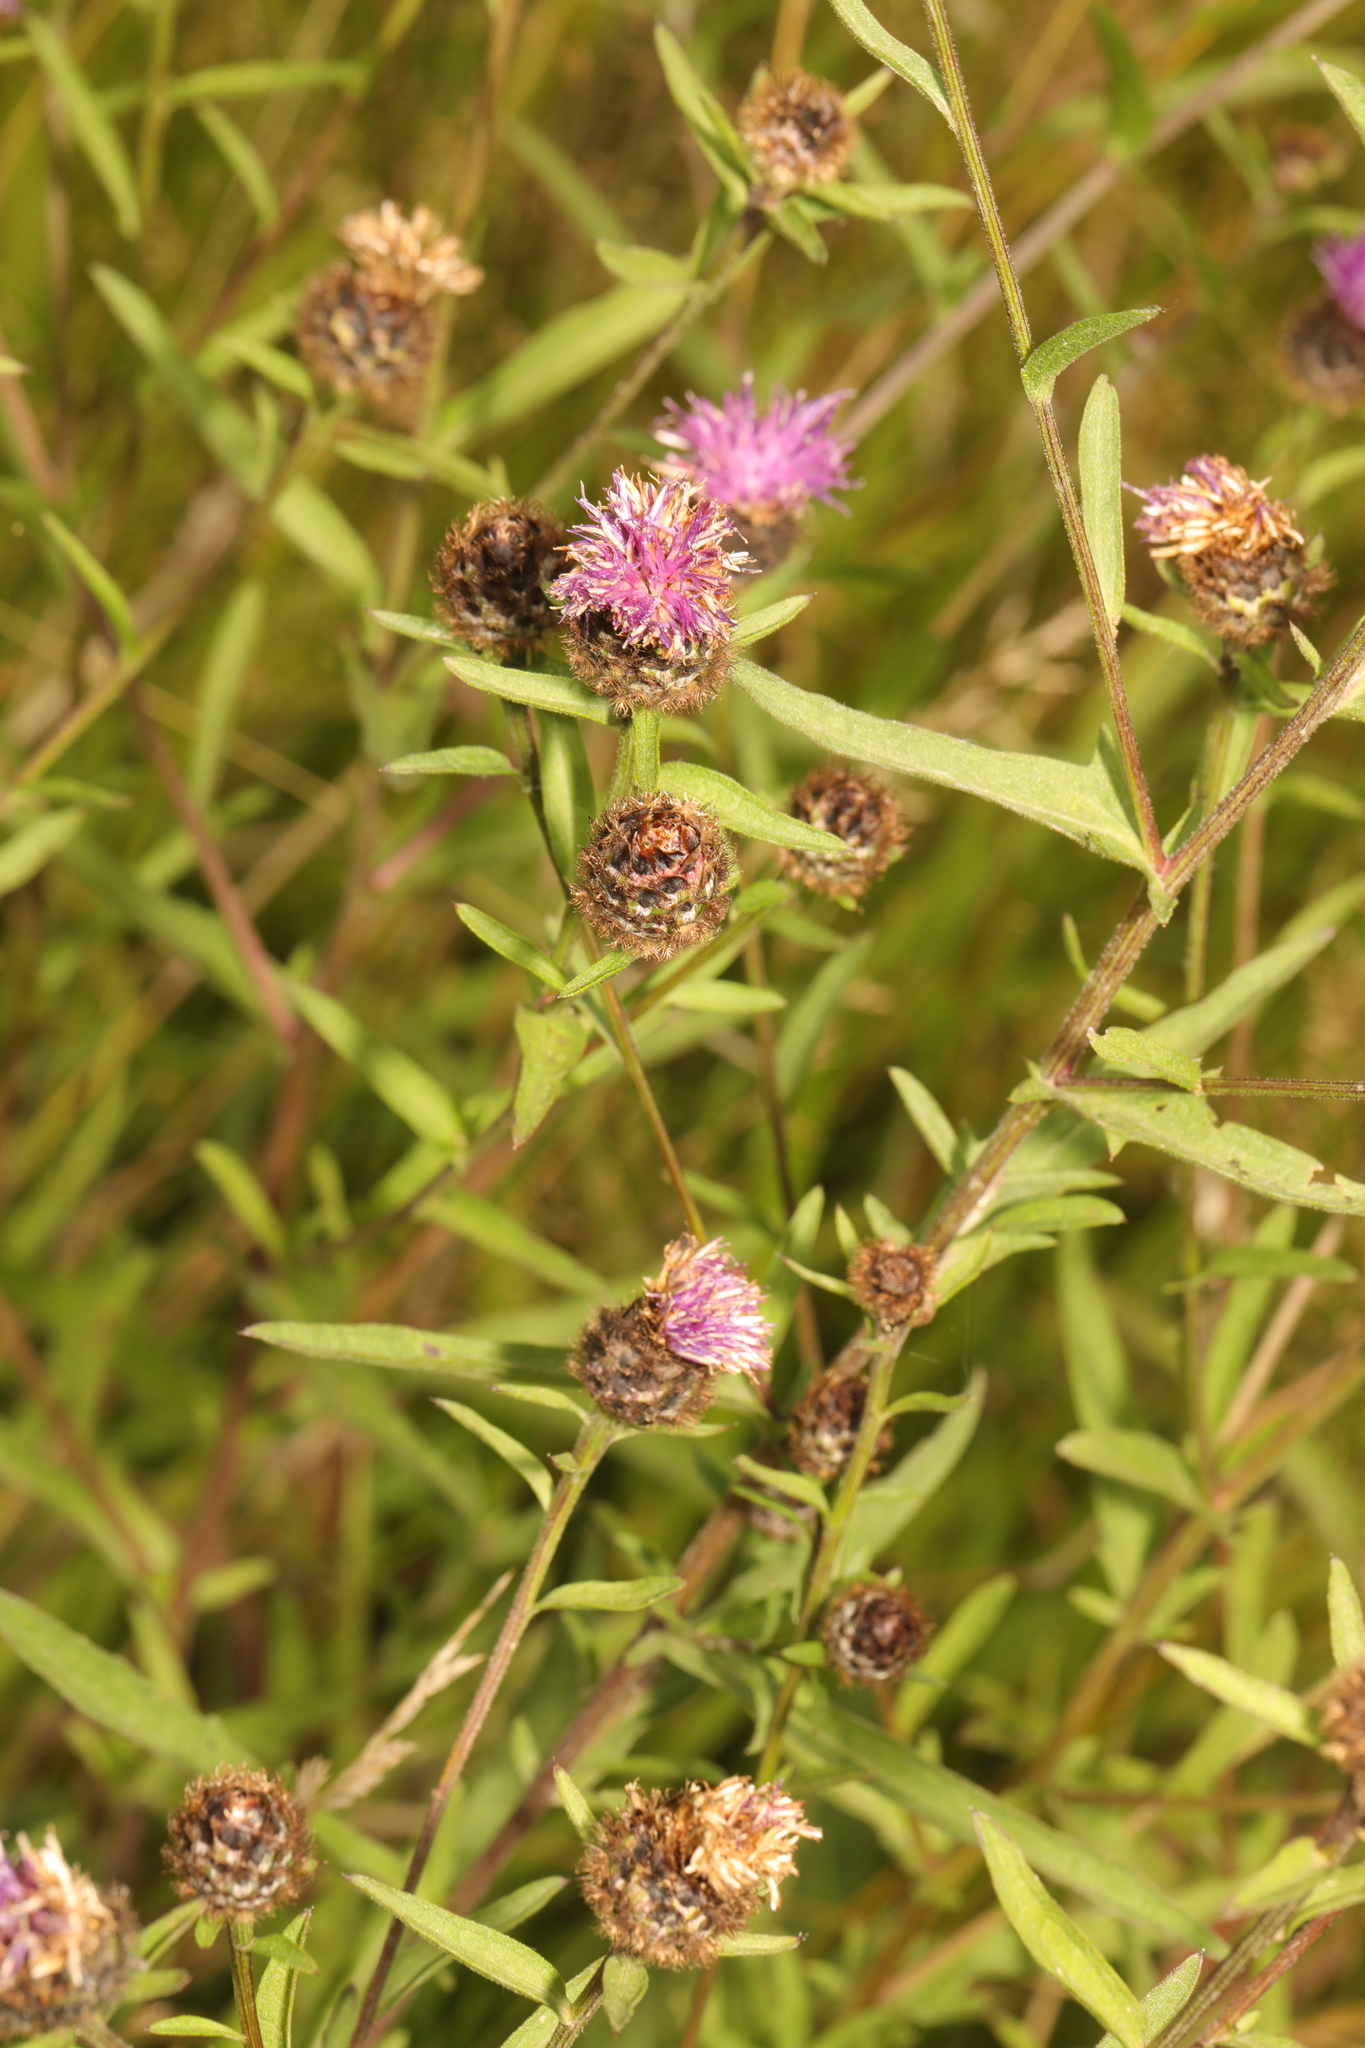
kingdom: Plantae
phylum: Tracheophyta
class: Magnoliopsida
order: Asterales
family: Asteraceae
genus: Centaurea
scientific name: Centaurea nigra
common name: Lesser knapweed
